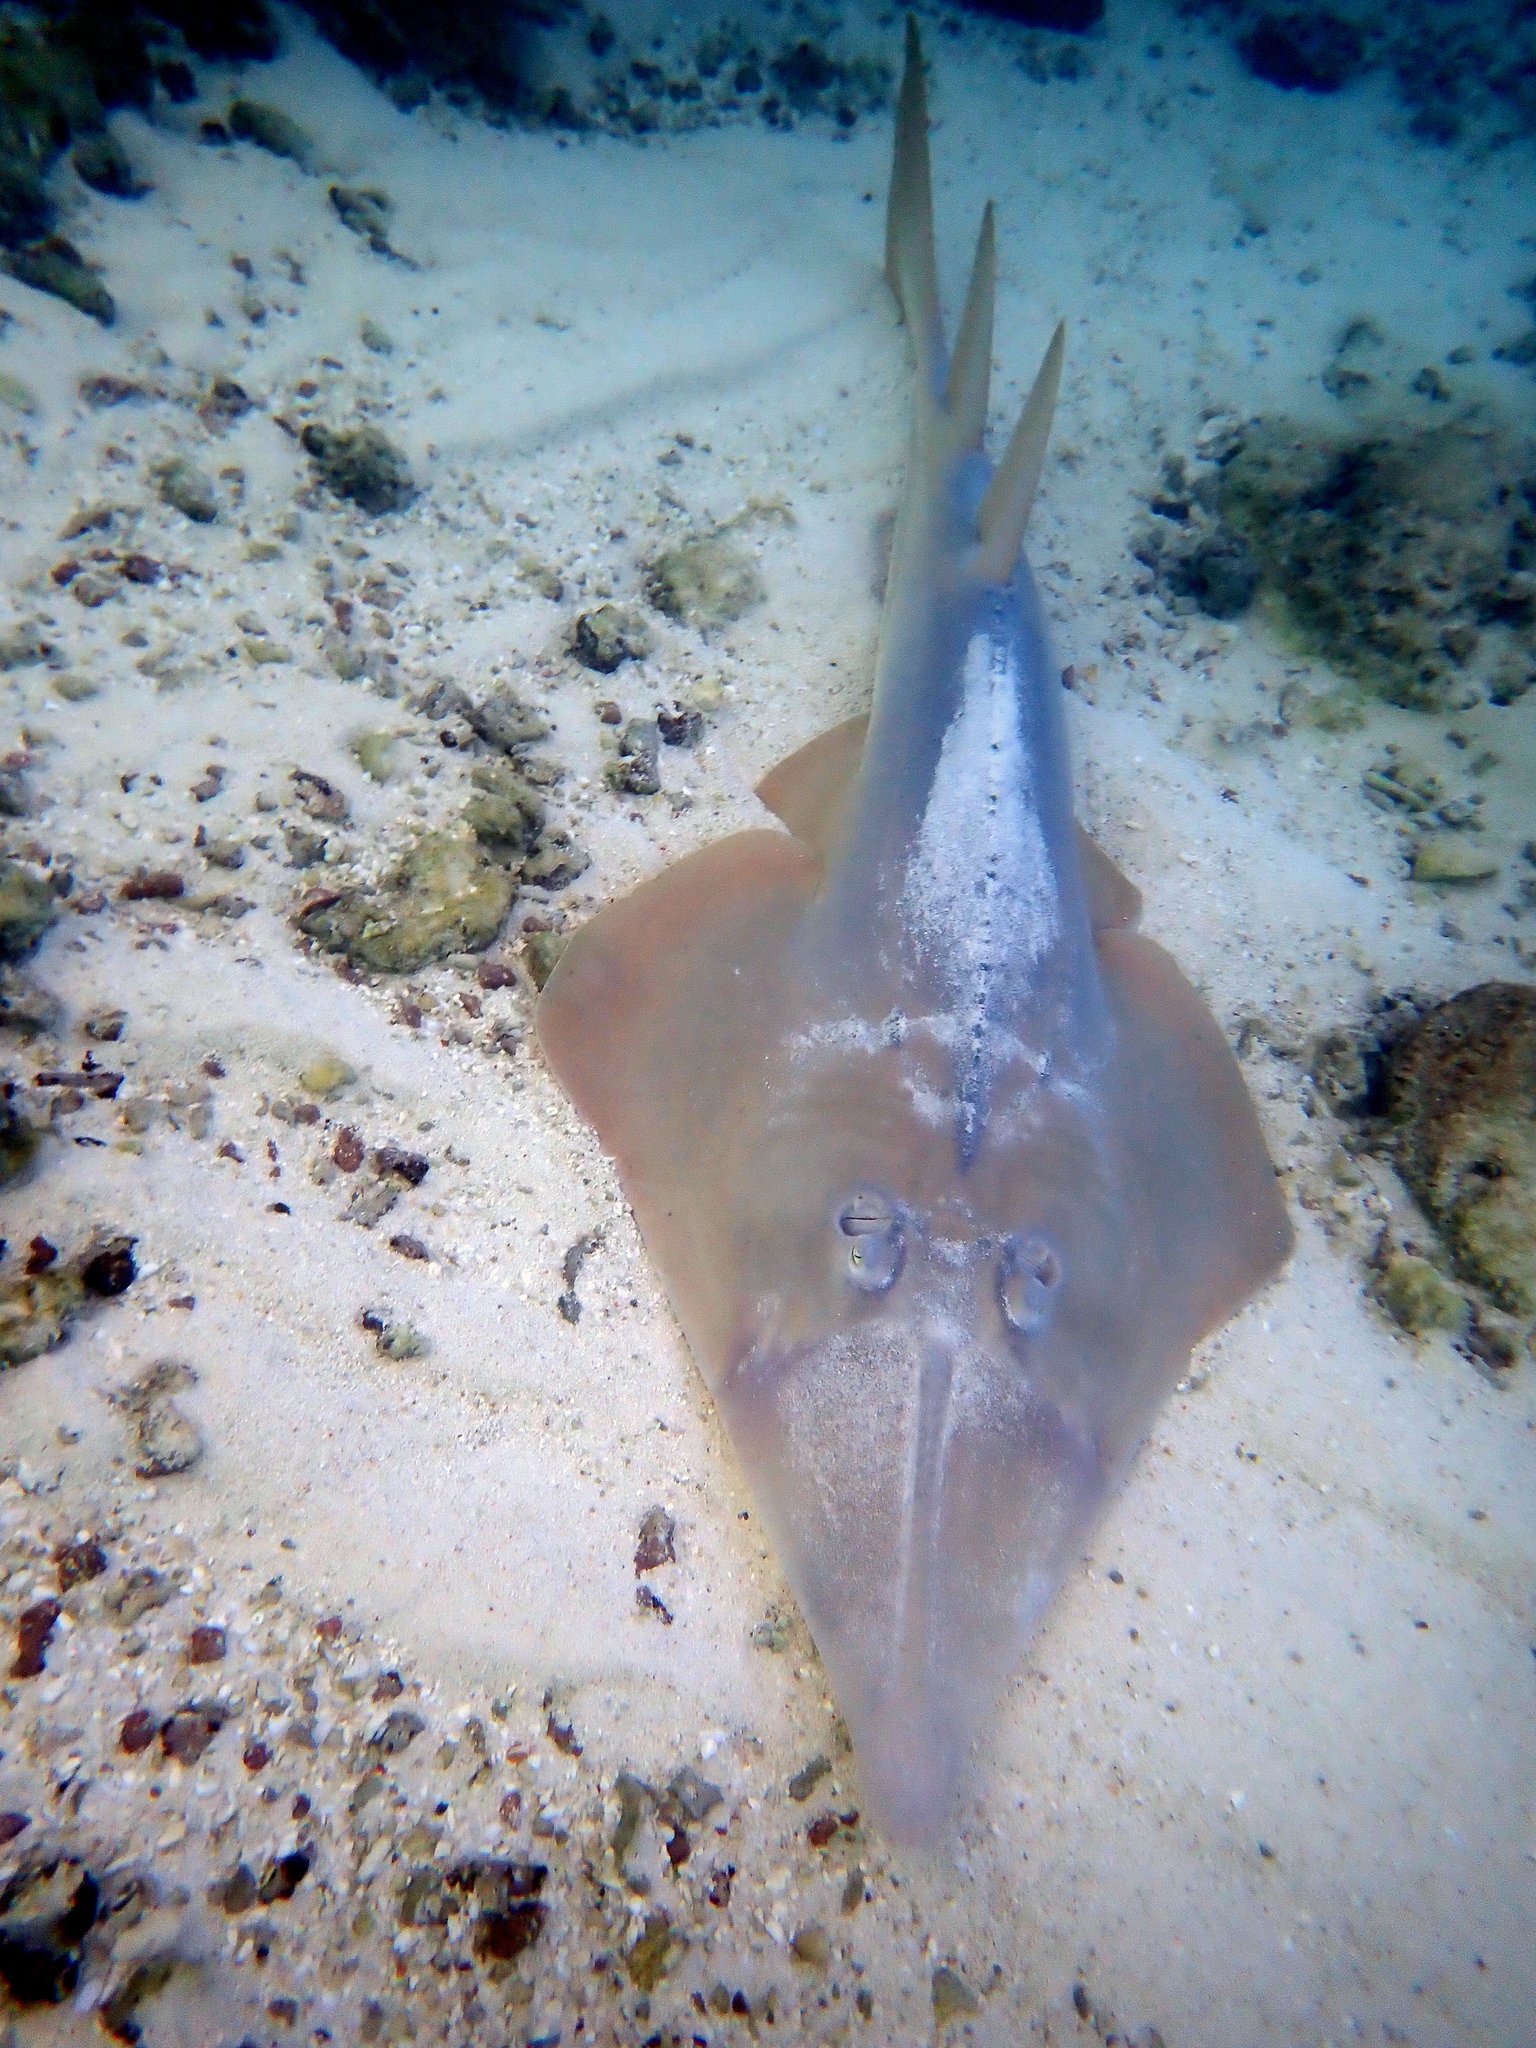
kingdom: Animalia
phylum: Chordata
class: Elasmobranchii
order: Rhinopristiformes
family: Glaucostegidae
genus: Glaucostegus
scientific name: Glaucostegus typus
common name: Giant shovelnose ray
